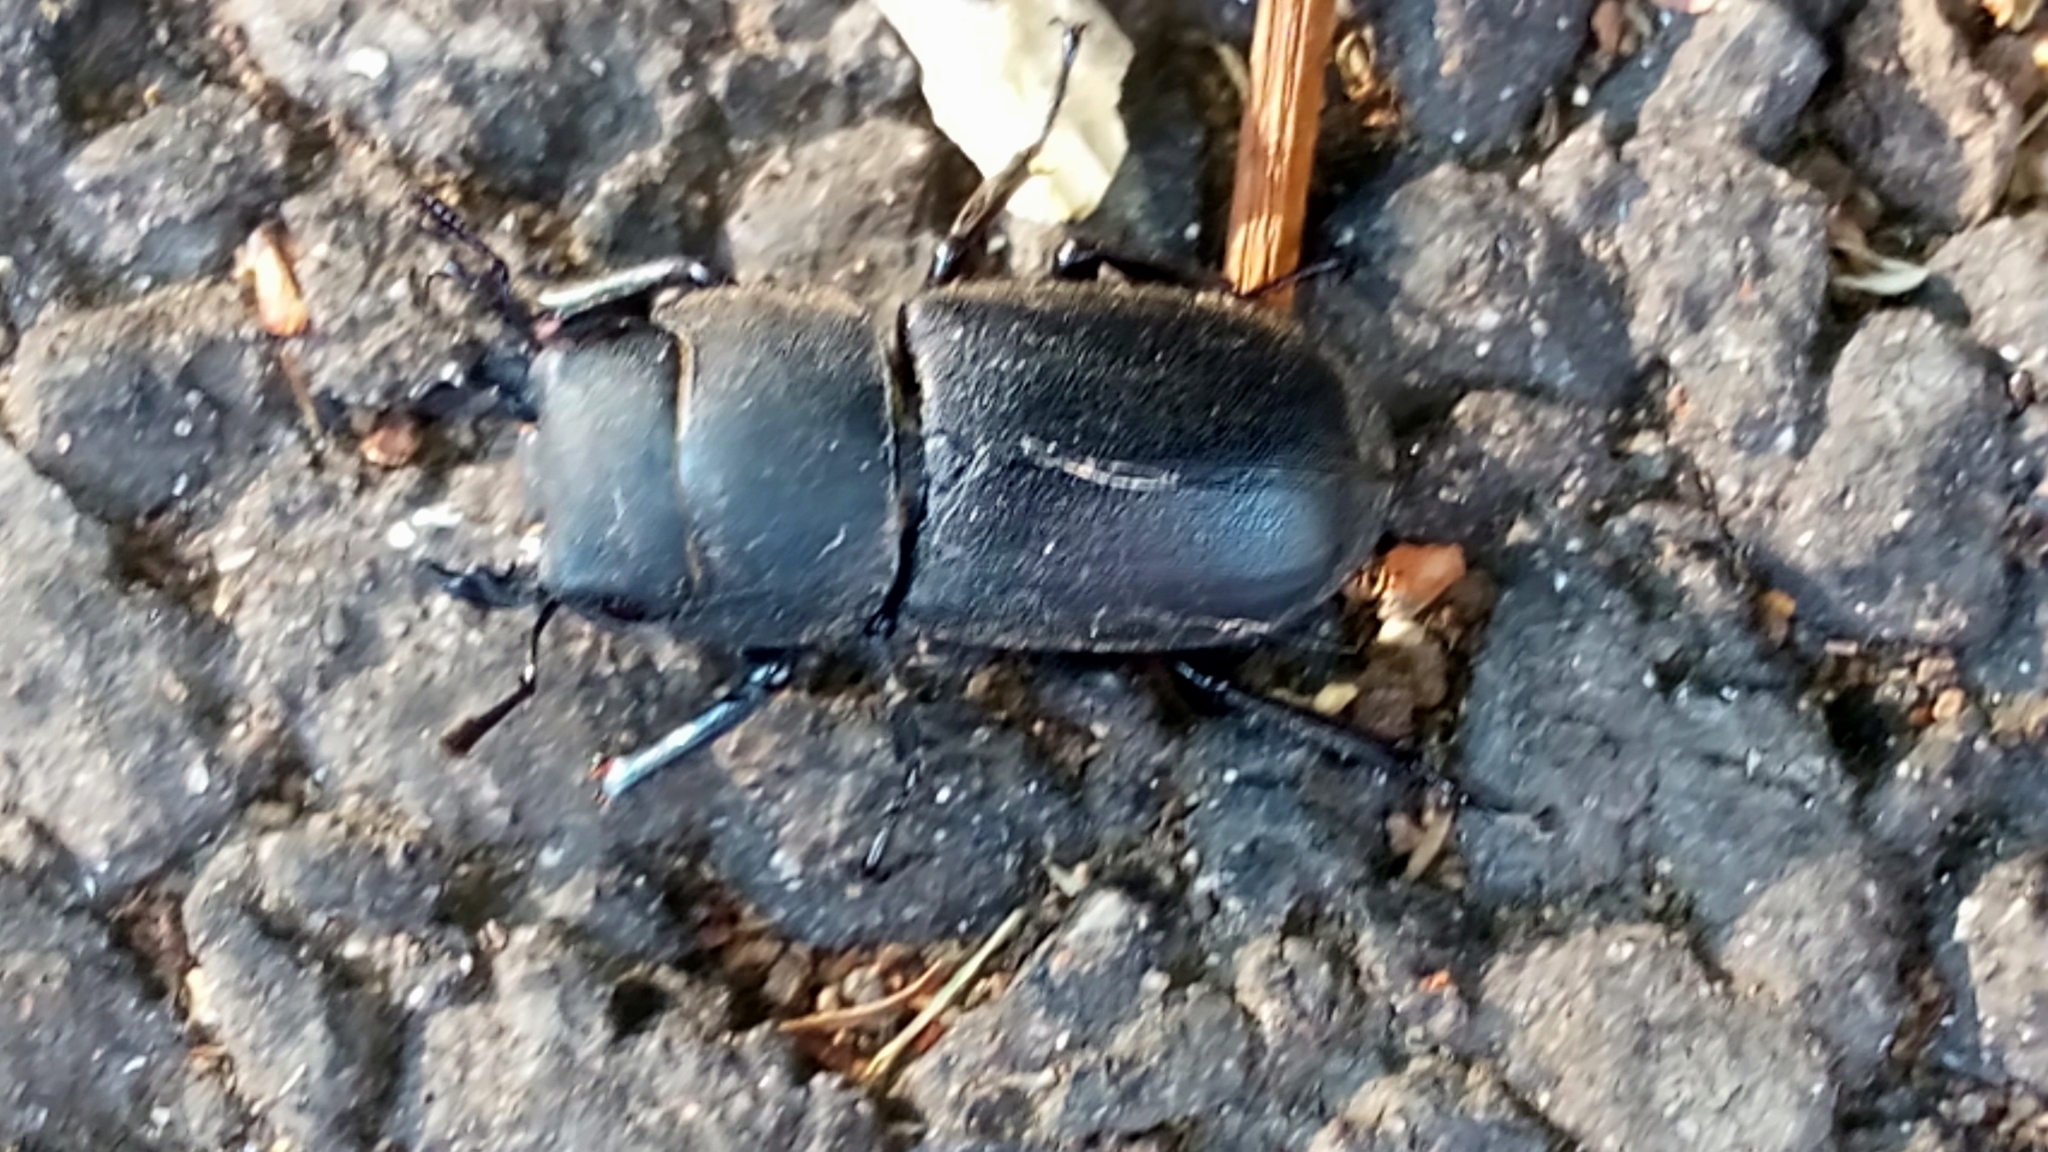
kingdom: Animalia
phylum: Arthropoda
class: Insecta
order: Coleoptera
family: Lucanidae
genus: Dorcus
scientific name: Dorcus parallelipipedus
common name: Lesser stag beetle
